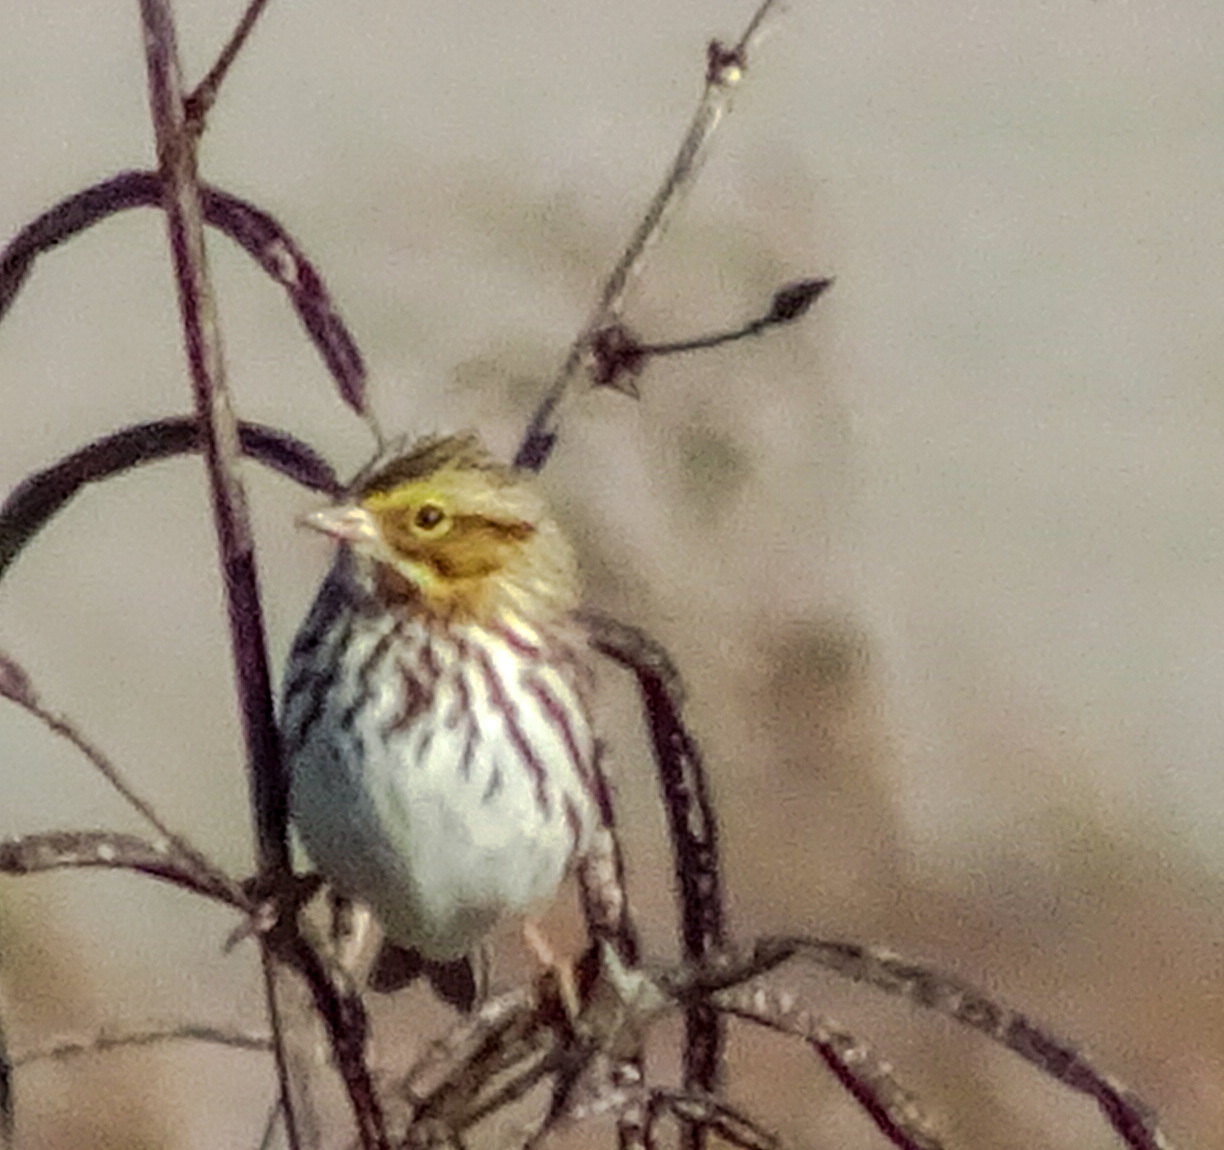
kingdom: Animalia
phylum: Chordata
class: Aves
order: Passeriformes
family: Passerellidae
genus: Passerculus
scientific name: Passerculus sandwichensis
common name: Savannah sparrow
